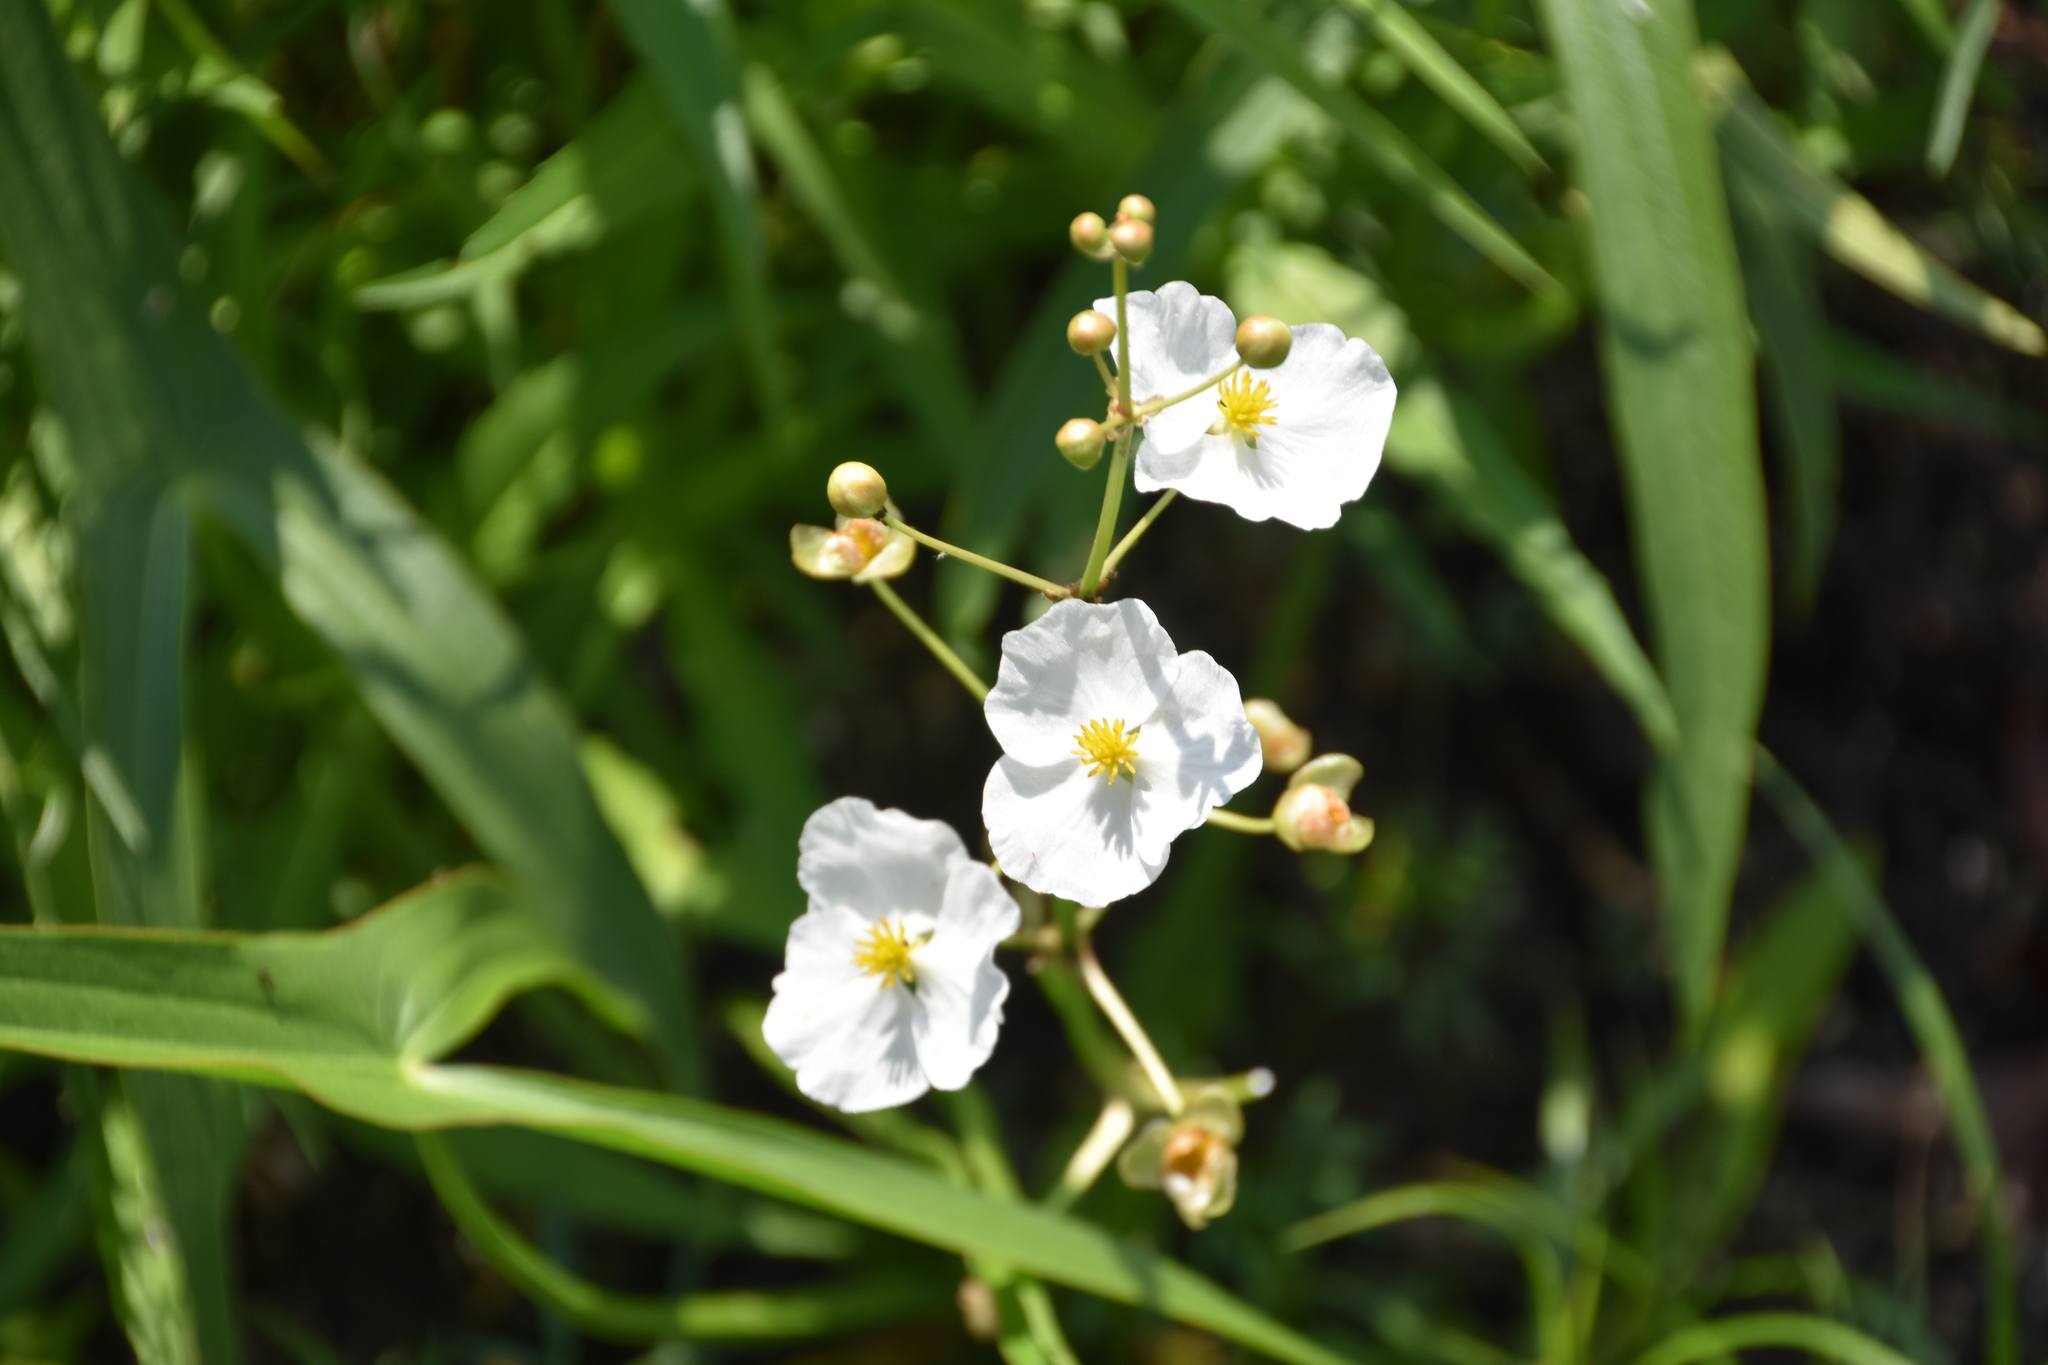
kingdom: Plantae
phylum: Tracheophyta
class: Liliopsida
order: Alismatales
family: Alismataceae
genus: Sagittaria
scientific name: Sagittaria latifolia
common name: Duck-potato
